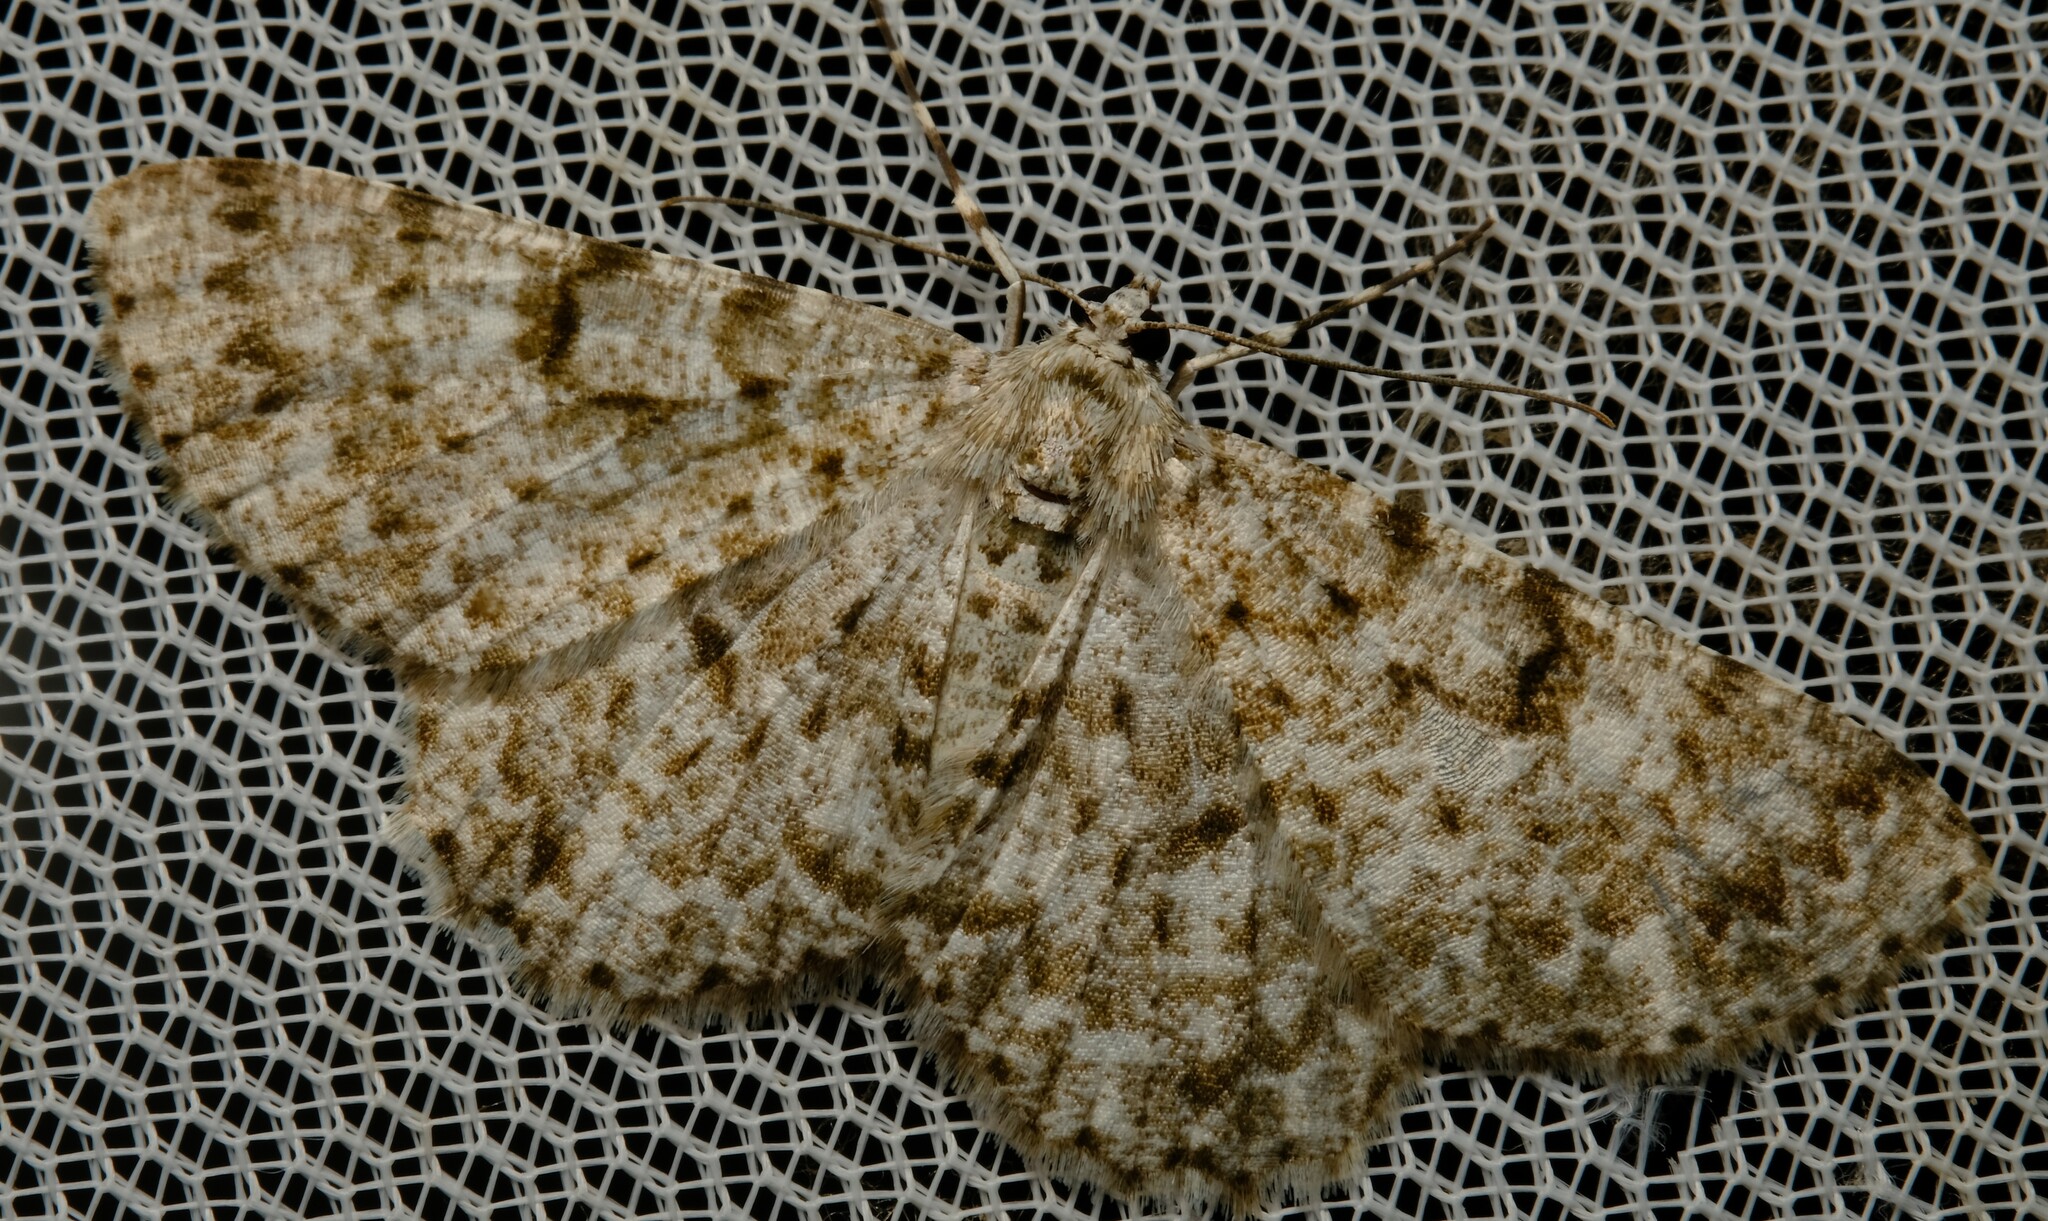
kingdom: Animalia
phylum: Arthropoda
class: Insecta
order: Lepidoptera
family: Geometridae
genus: Thallogama
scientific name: Thallogama corticola
